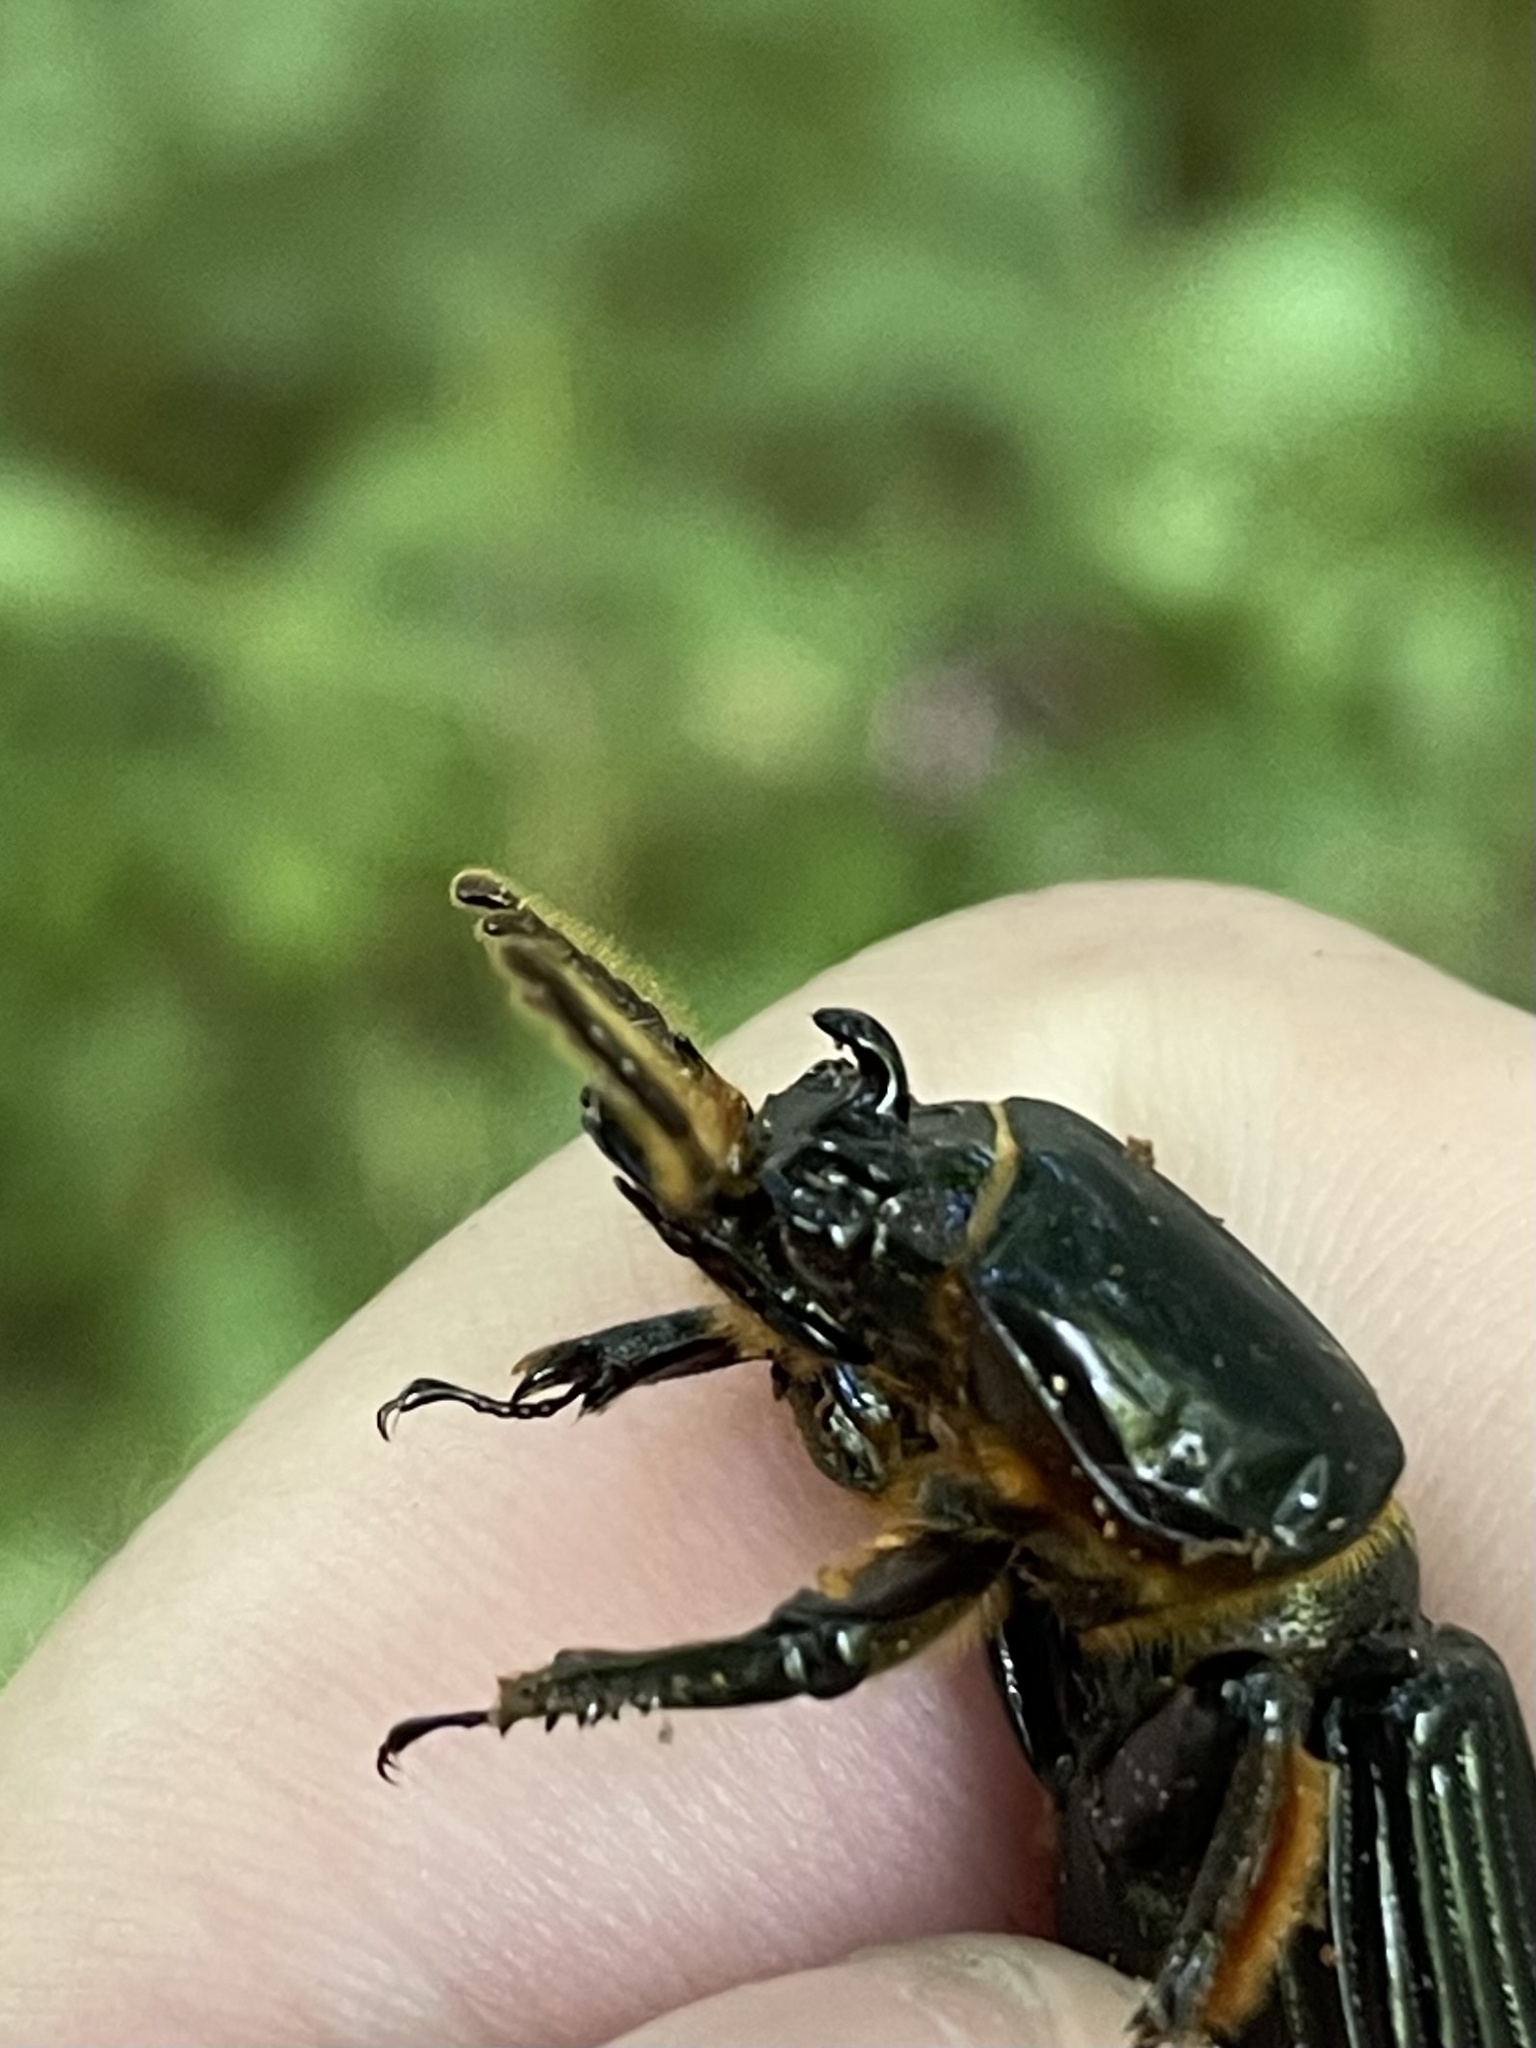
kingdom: Animalia
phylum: Arthropoda
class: Insecta
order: Coleoptera
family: Passalidae
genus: Odontotaenius
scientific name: Odontotaenius disjunctus
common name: Patent leather beetle
